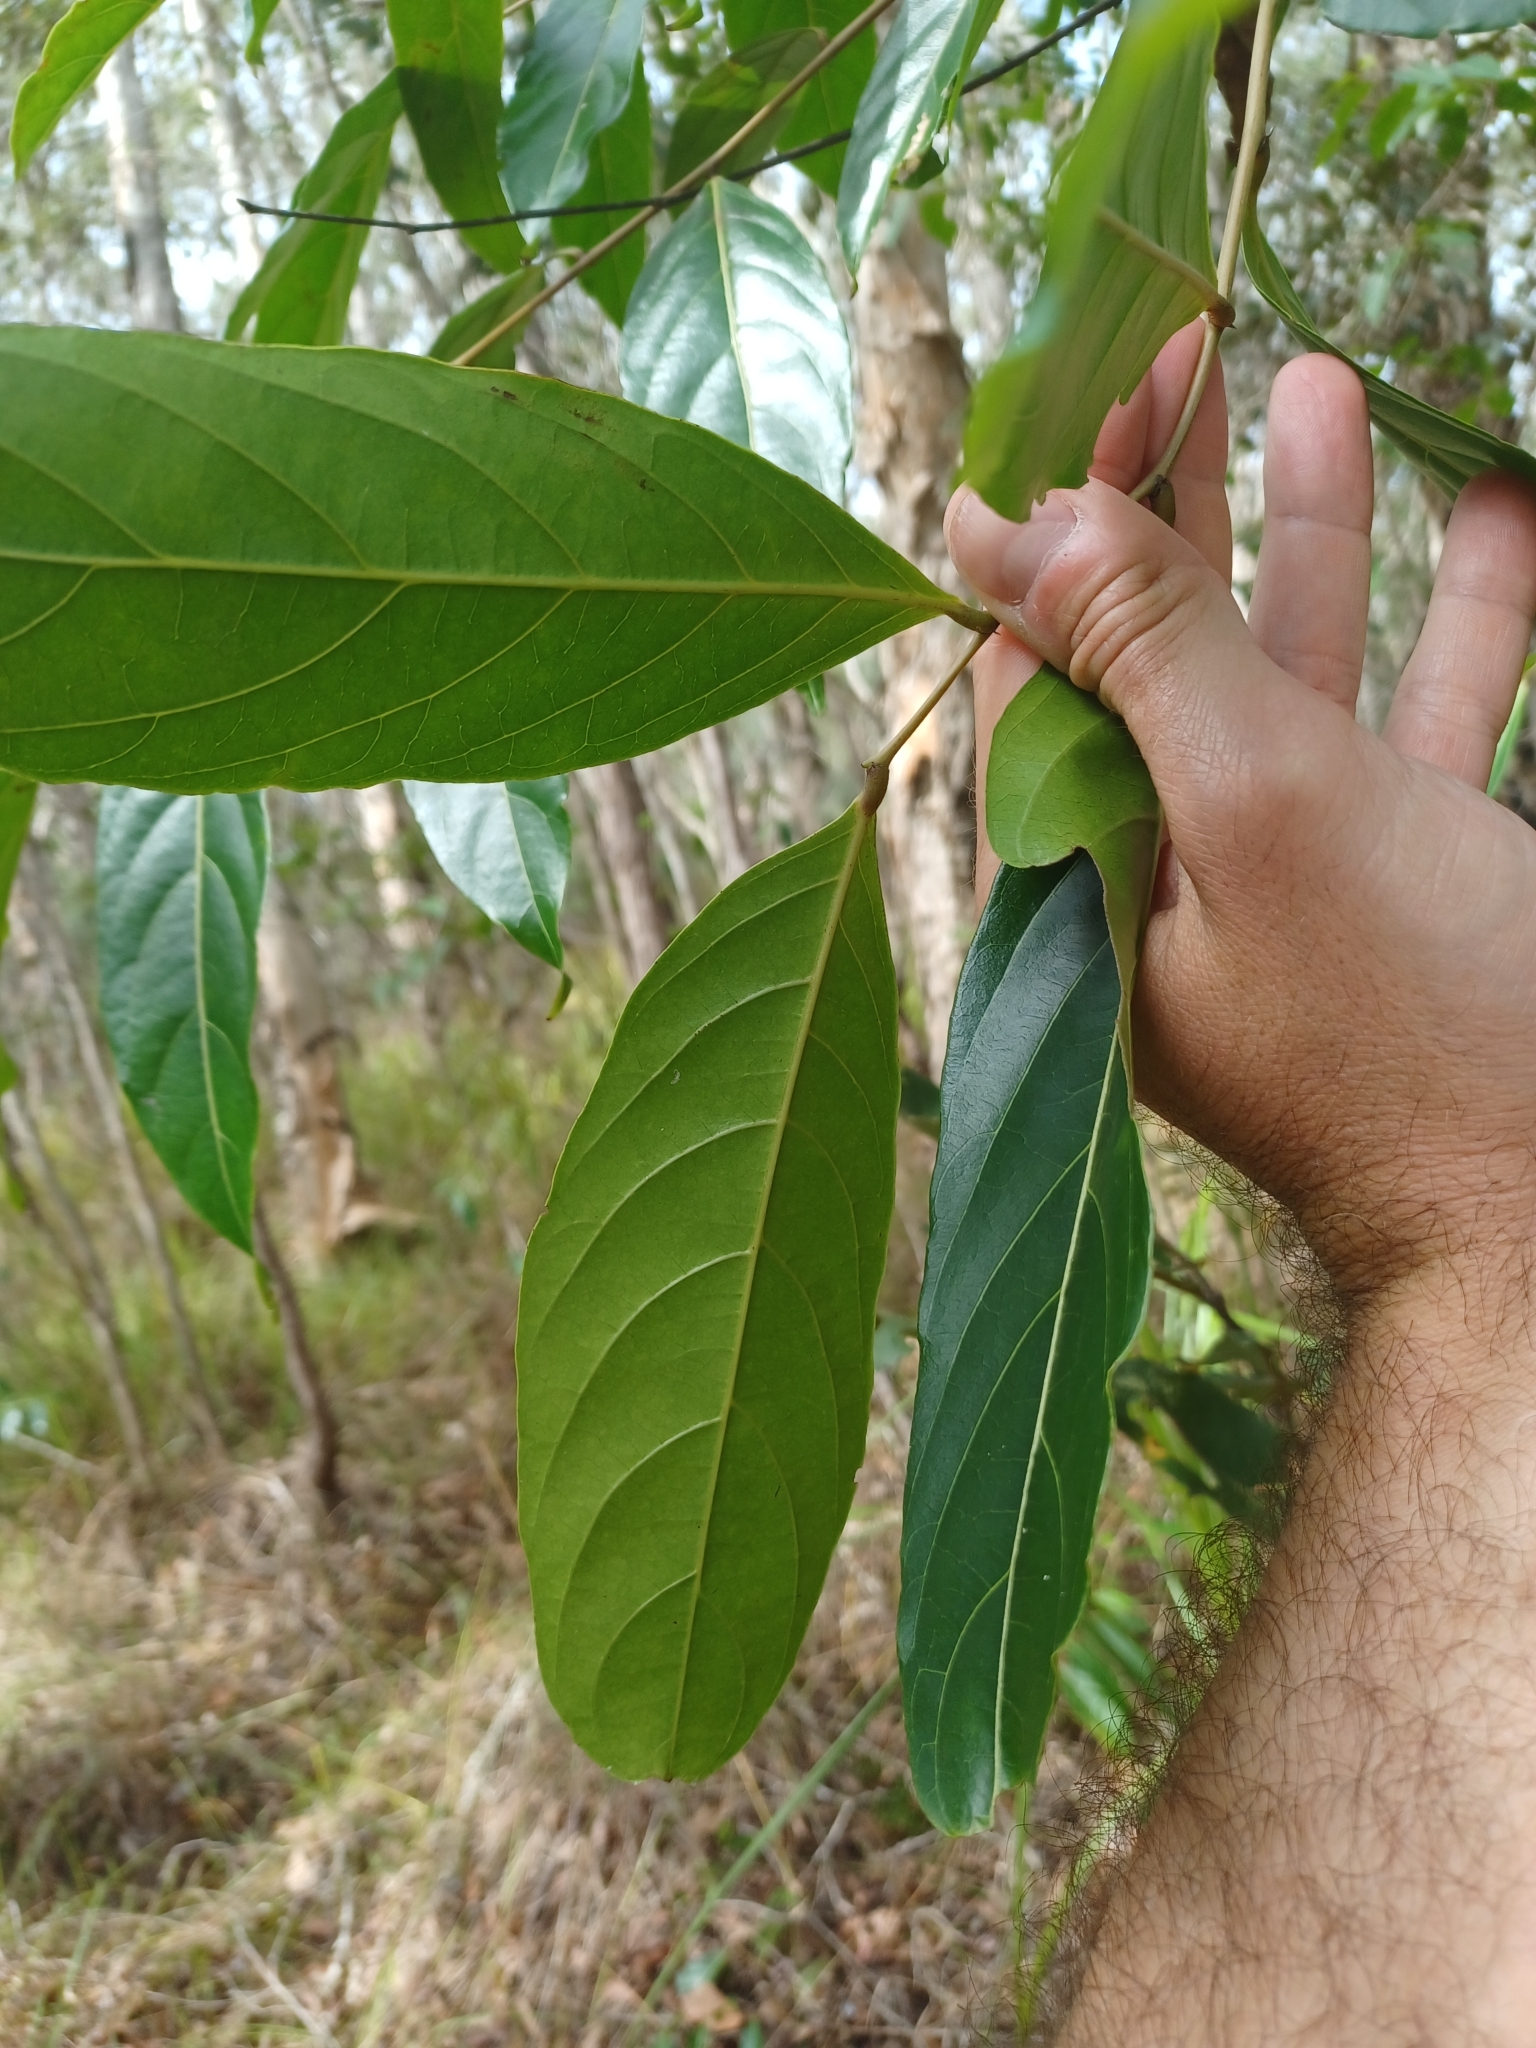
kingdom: Plantae
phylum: Tracheophyta
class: Magnoliopsida
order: Malpighiales
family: Phyllanthaceae
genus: Glochidion
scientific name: Glochidion zeylanicum
